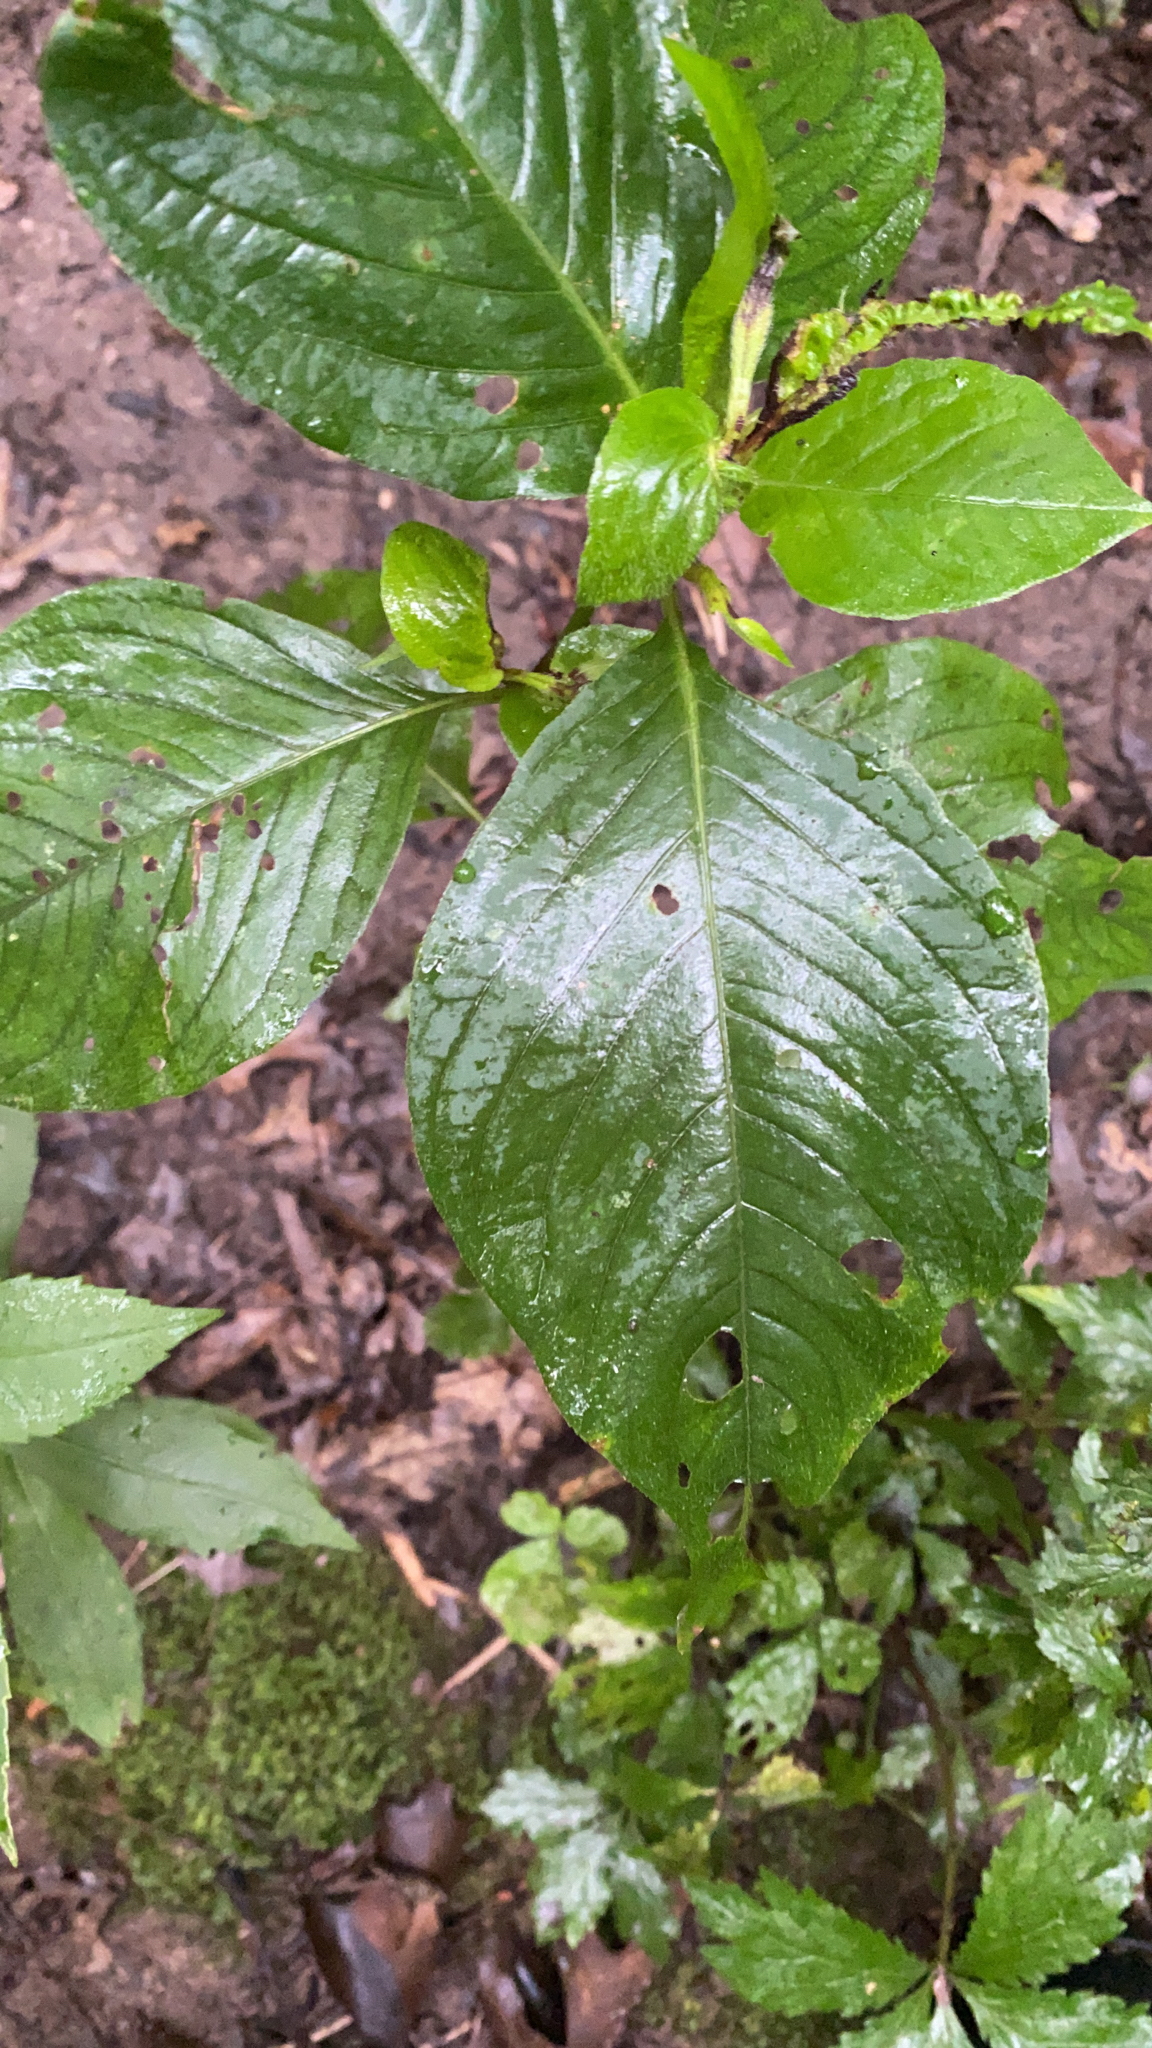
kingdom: Plantae
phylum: Tracheophyta
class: Magnoliopsida
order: Caryophyllales
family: Polygonaceae
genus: Persicaria
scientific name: Persicaria virginiana
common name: Jumpseed
